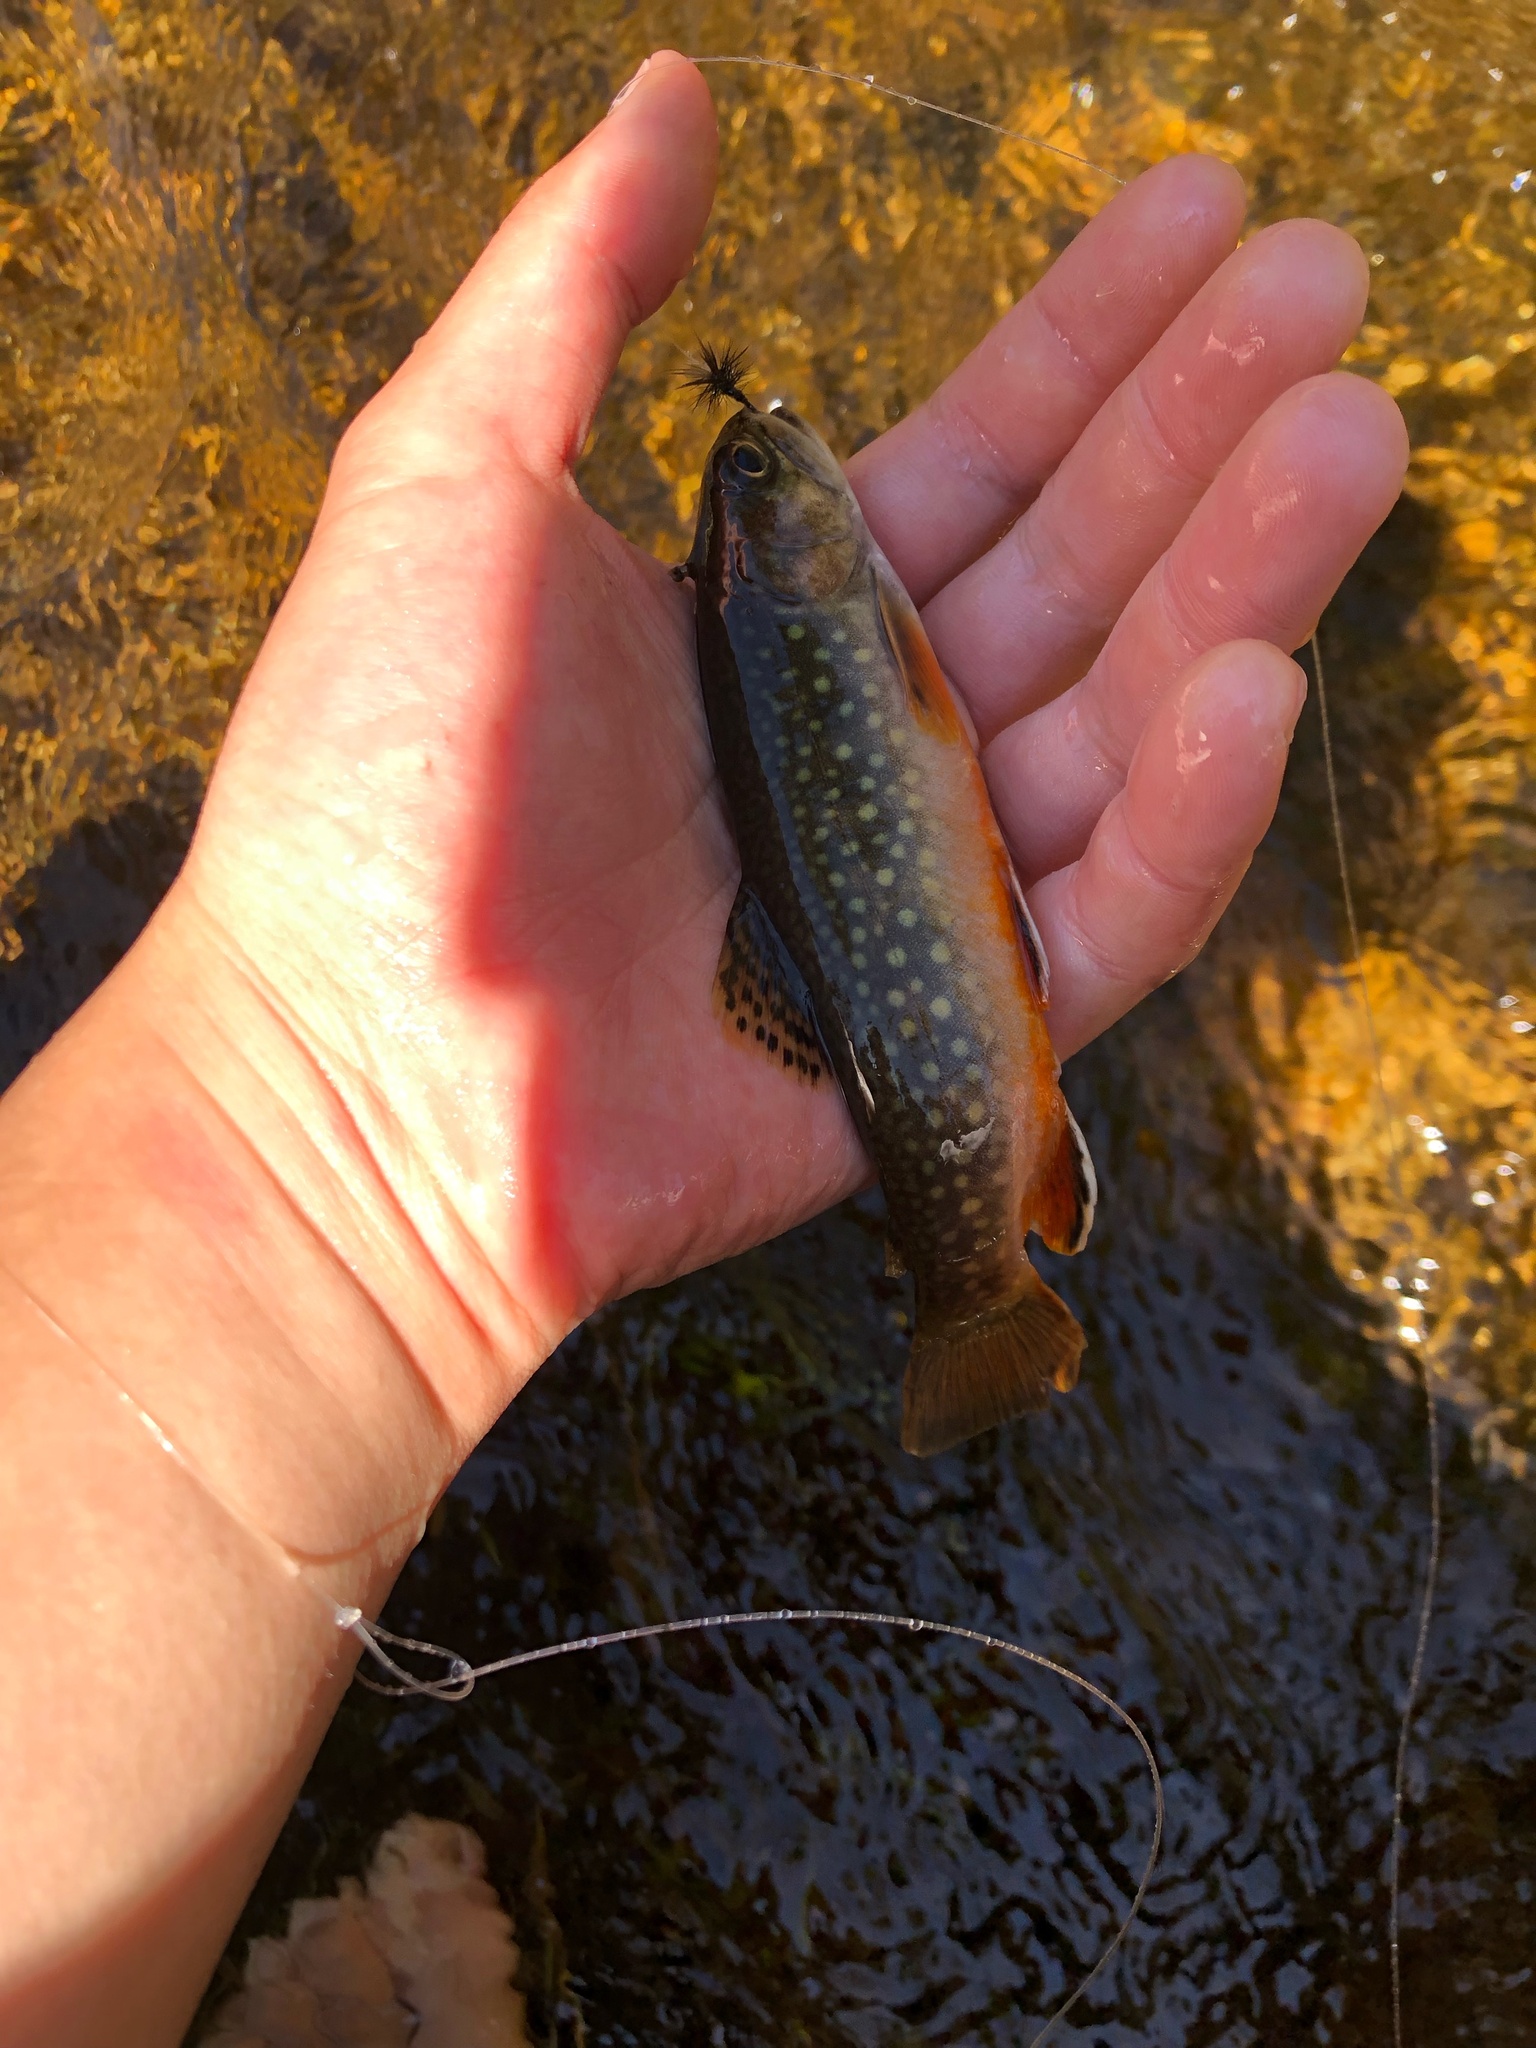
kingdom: Animalia
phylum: Chordata
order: Salmoniformes
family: Salmonidae
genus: Salvelinus
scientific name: Salvelinus fontinalis
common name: Brook trout
